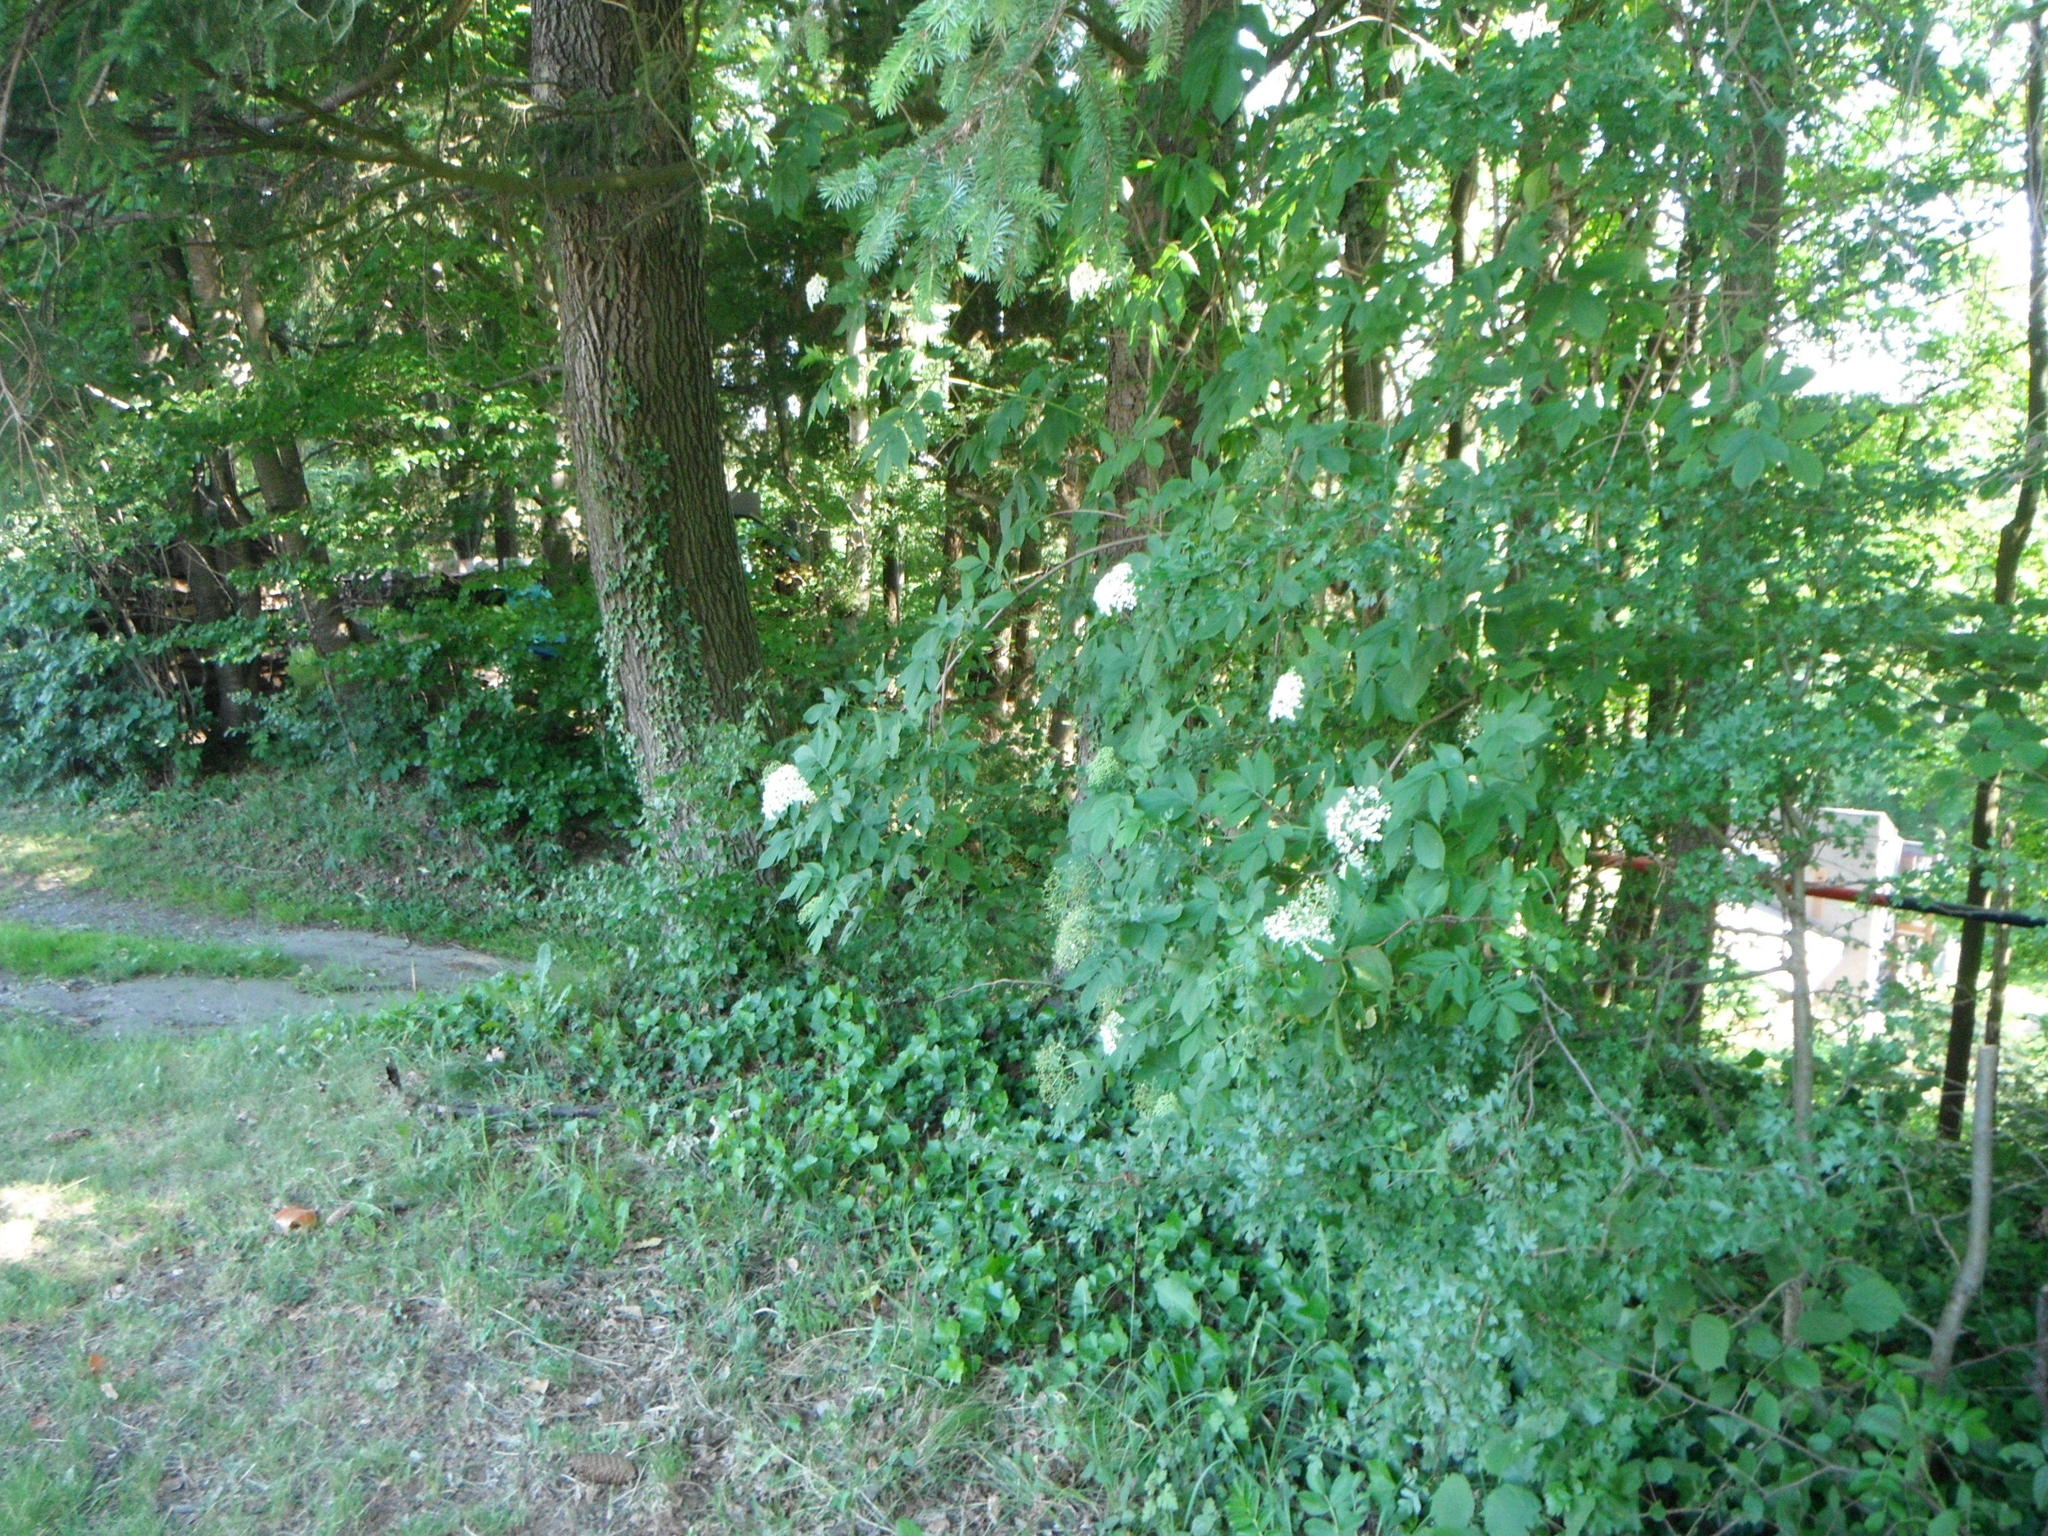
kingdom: Plantae
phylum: Tracheophyta
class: Magnoliopsida
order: Dipsacales
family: Viburnaceae
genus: Sambucus
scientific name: Sambucus nigra
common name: Elder
